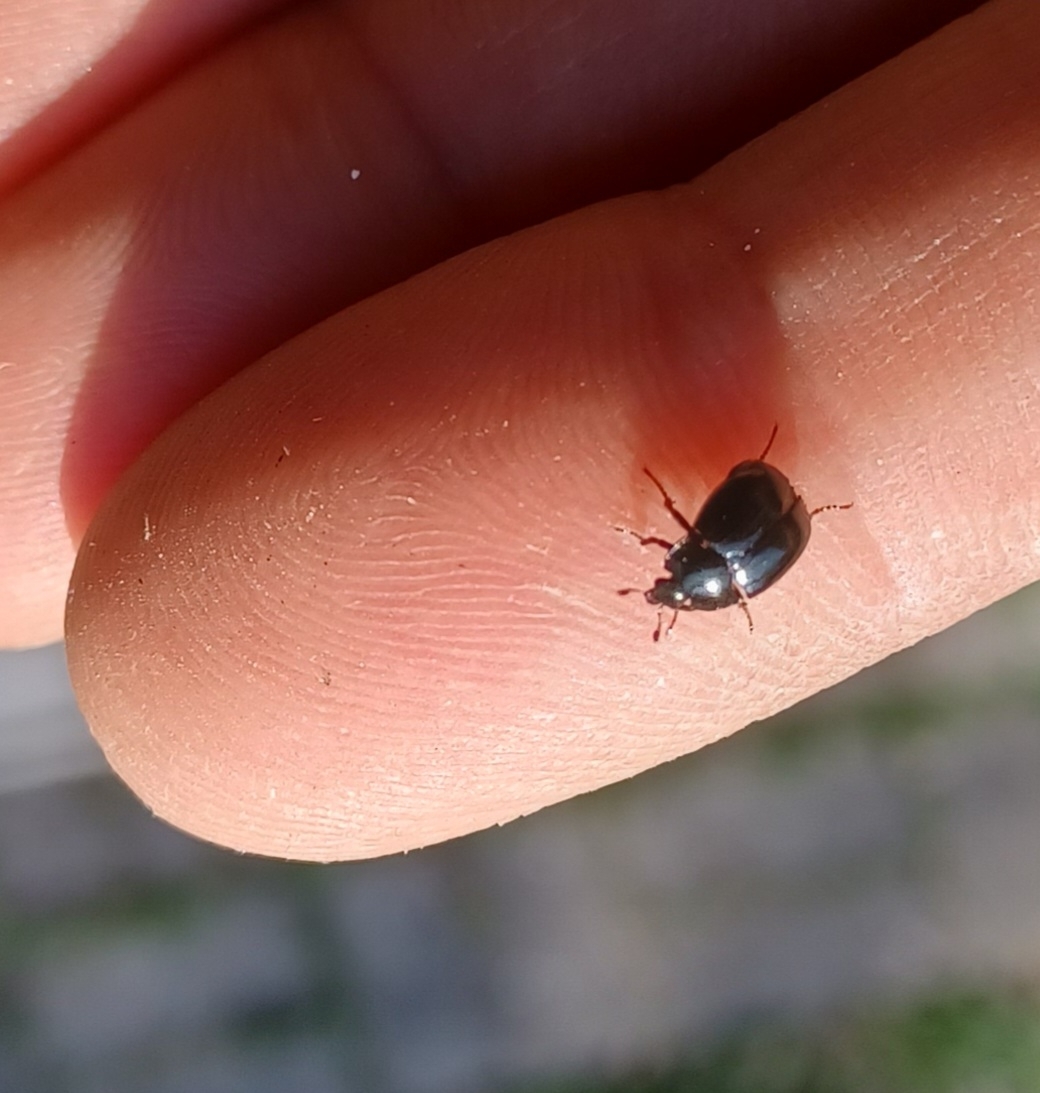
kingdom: Animalia
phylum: Arthropoda
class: Insecta
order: Coleoptera
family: Sphaeritidae
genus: Sphaerites
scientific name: Sphaerites glabratus
